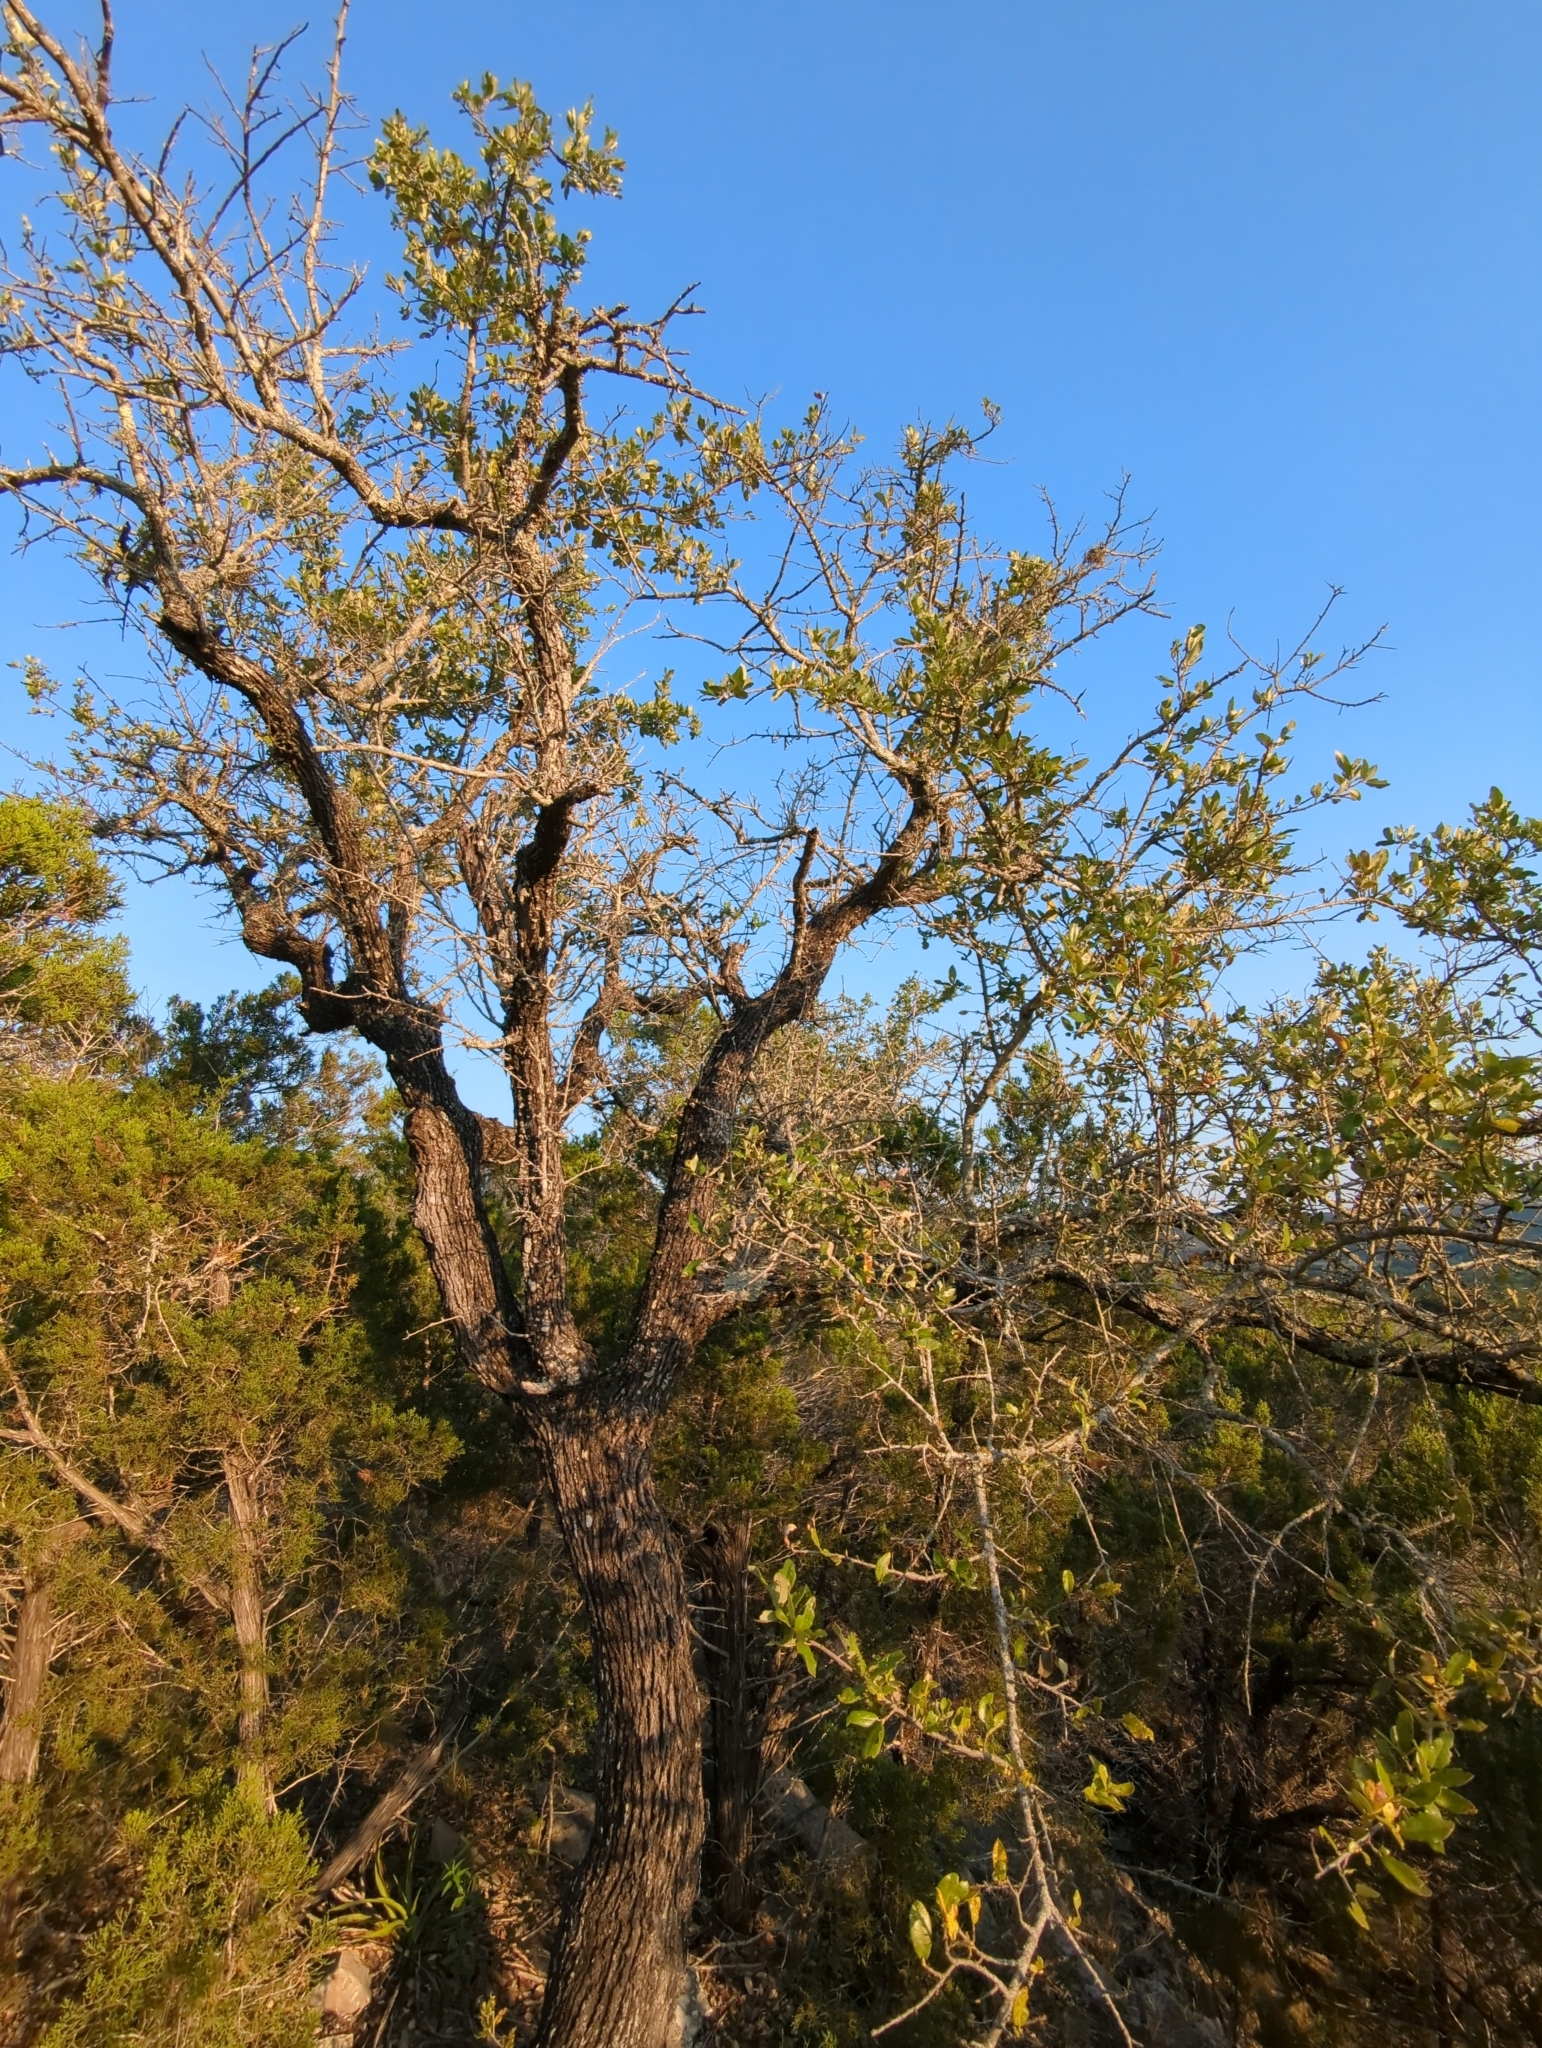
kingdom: Plantae
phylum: Tracheophyta
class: Magnoliopsida
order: Fagales
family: Fagaceae
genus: Quercus
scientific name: Quercus fusiformis
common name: Texas live oak
